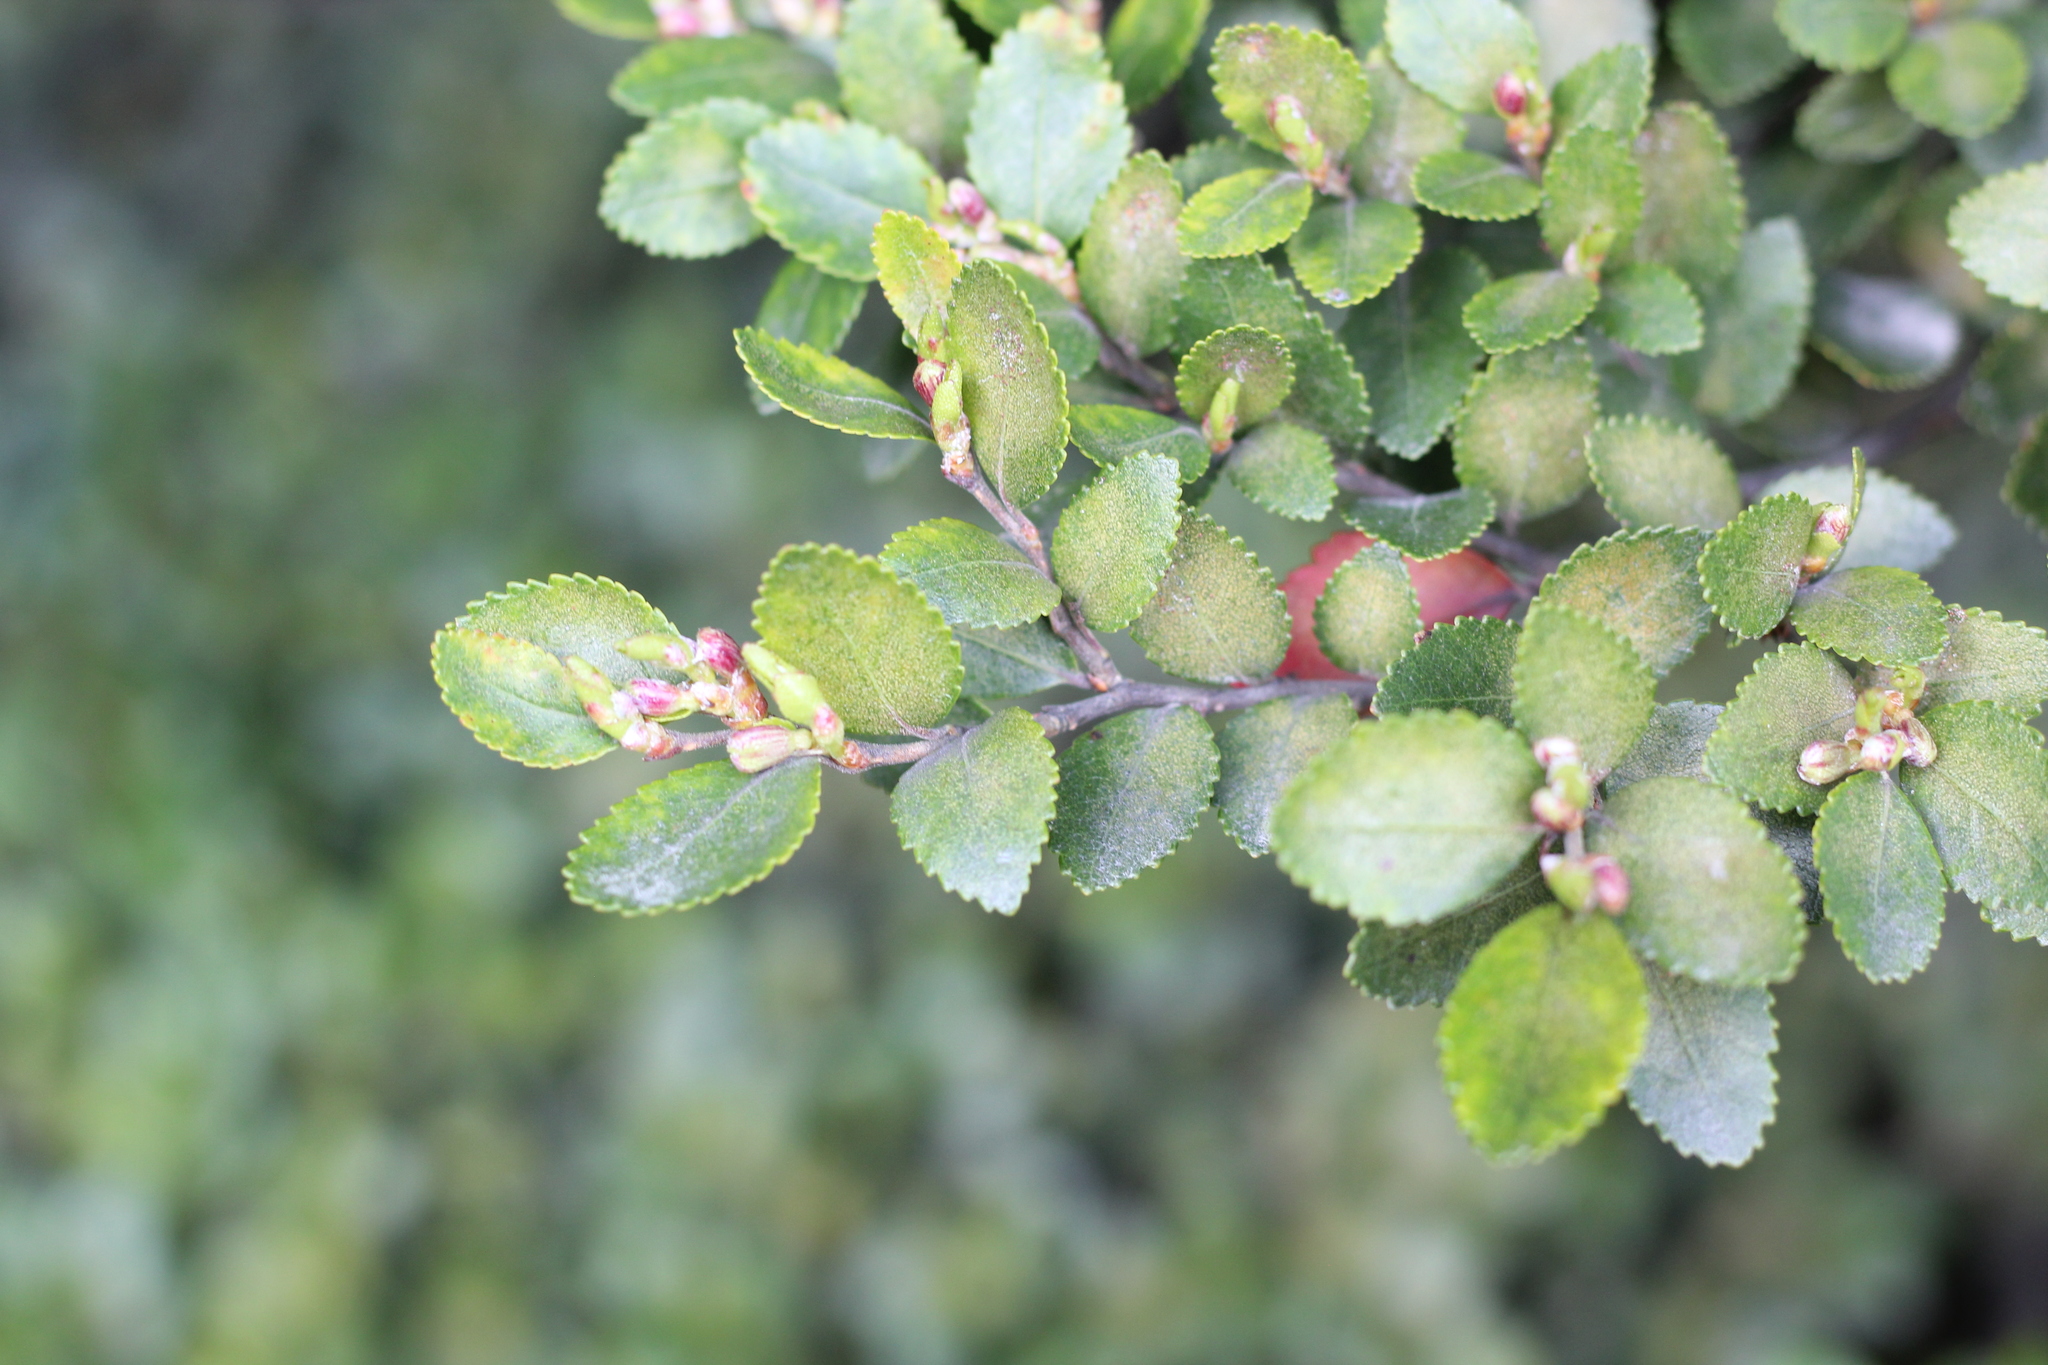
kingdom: Plantae
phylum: Tracheophyta
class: Magnoliopsida
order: Fagales
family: Nothofagaceae
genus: Nothofagus
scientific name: Nothofagus betuloides
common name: Magellan's beech
